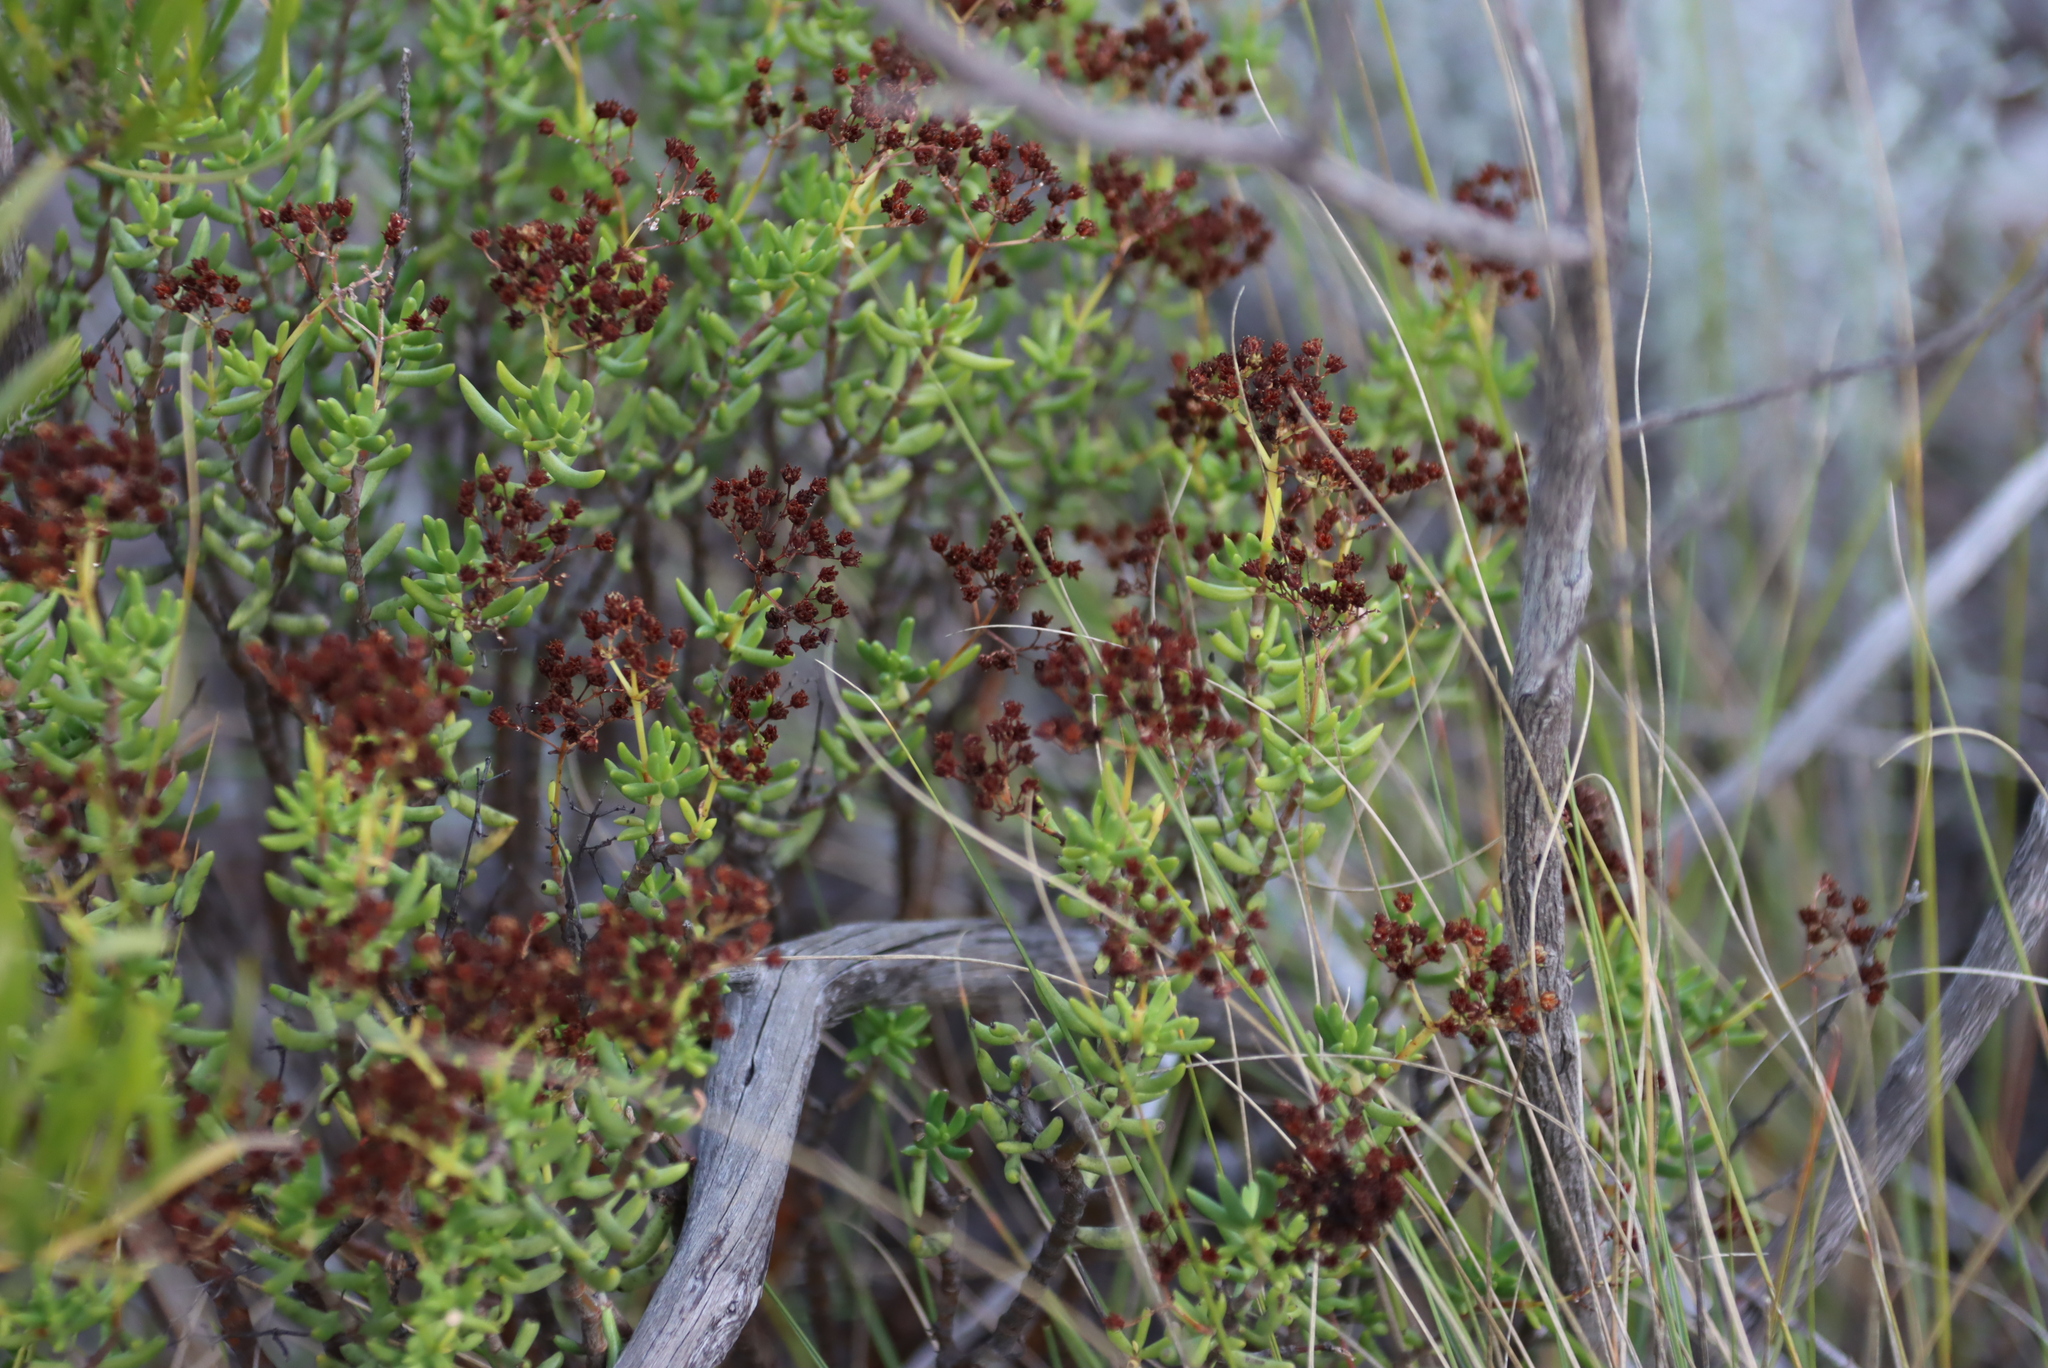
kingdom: Plantae
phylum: Tracheophyta
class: Magnoliopsida
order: Saxifragales
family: Crassulaceae
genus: Crassula
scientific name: Crassula tetragona
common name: Pygmyweed
